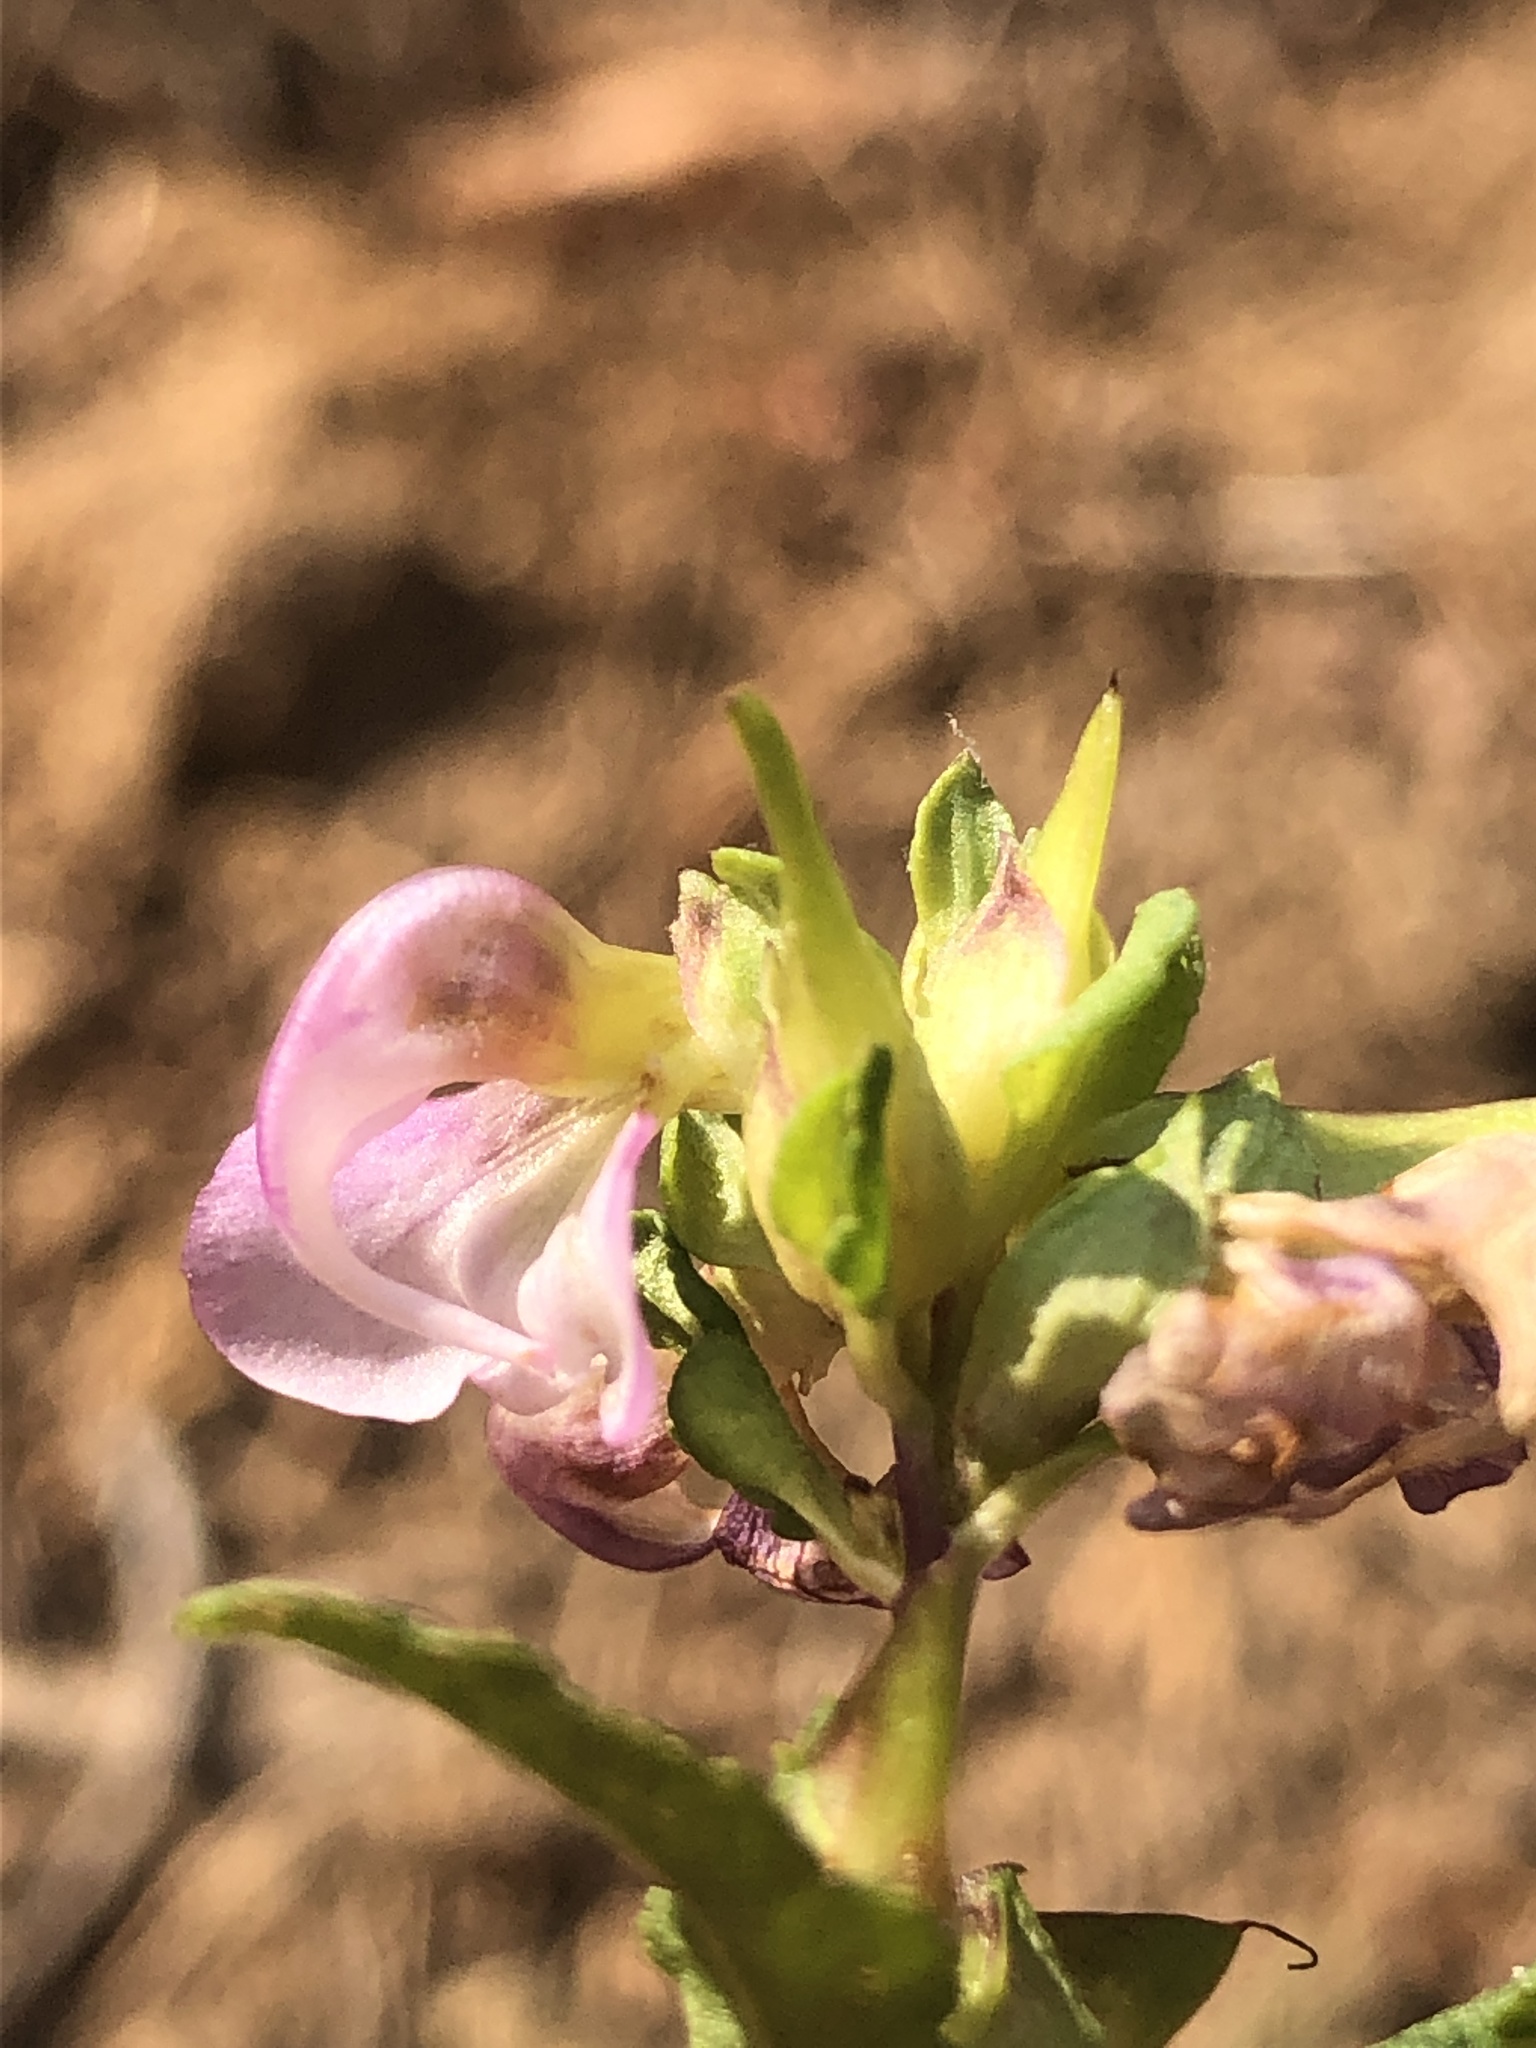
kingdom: Plantae
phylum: Tracheophyta
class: Magnoliopsida
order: Lamiales
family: Orobanchaceae
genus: Pedicularis
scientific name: Pedicularis racemosa
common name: Leafy lousewort
